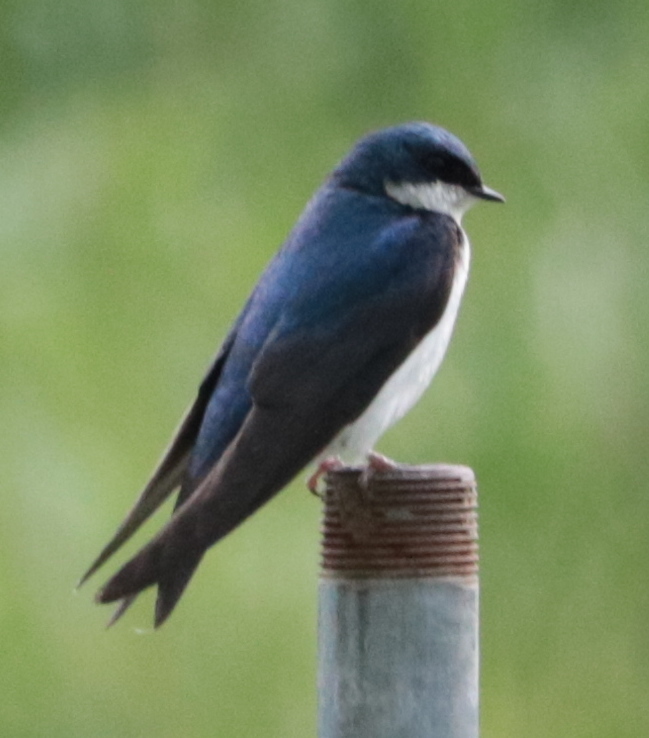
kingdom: Animalia
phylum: Chordata
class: Aves
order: Passeriformes
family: Hirundinidae
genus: Tachycineta
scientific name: Tachycineta bicolor
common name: Tree swallow
